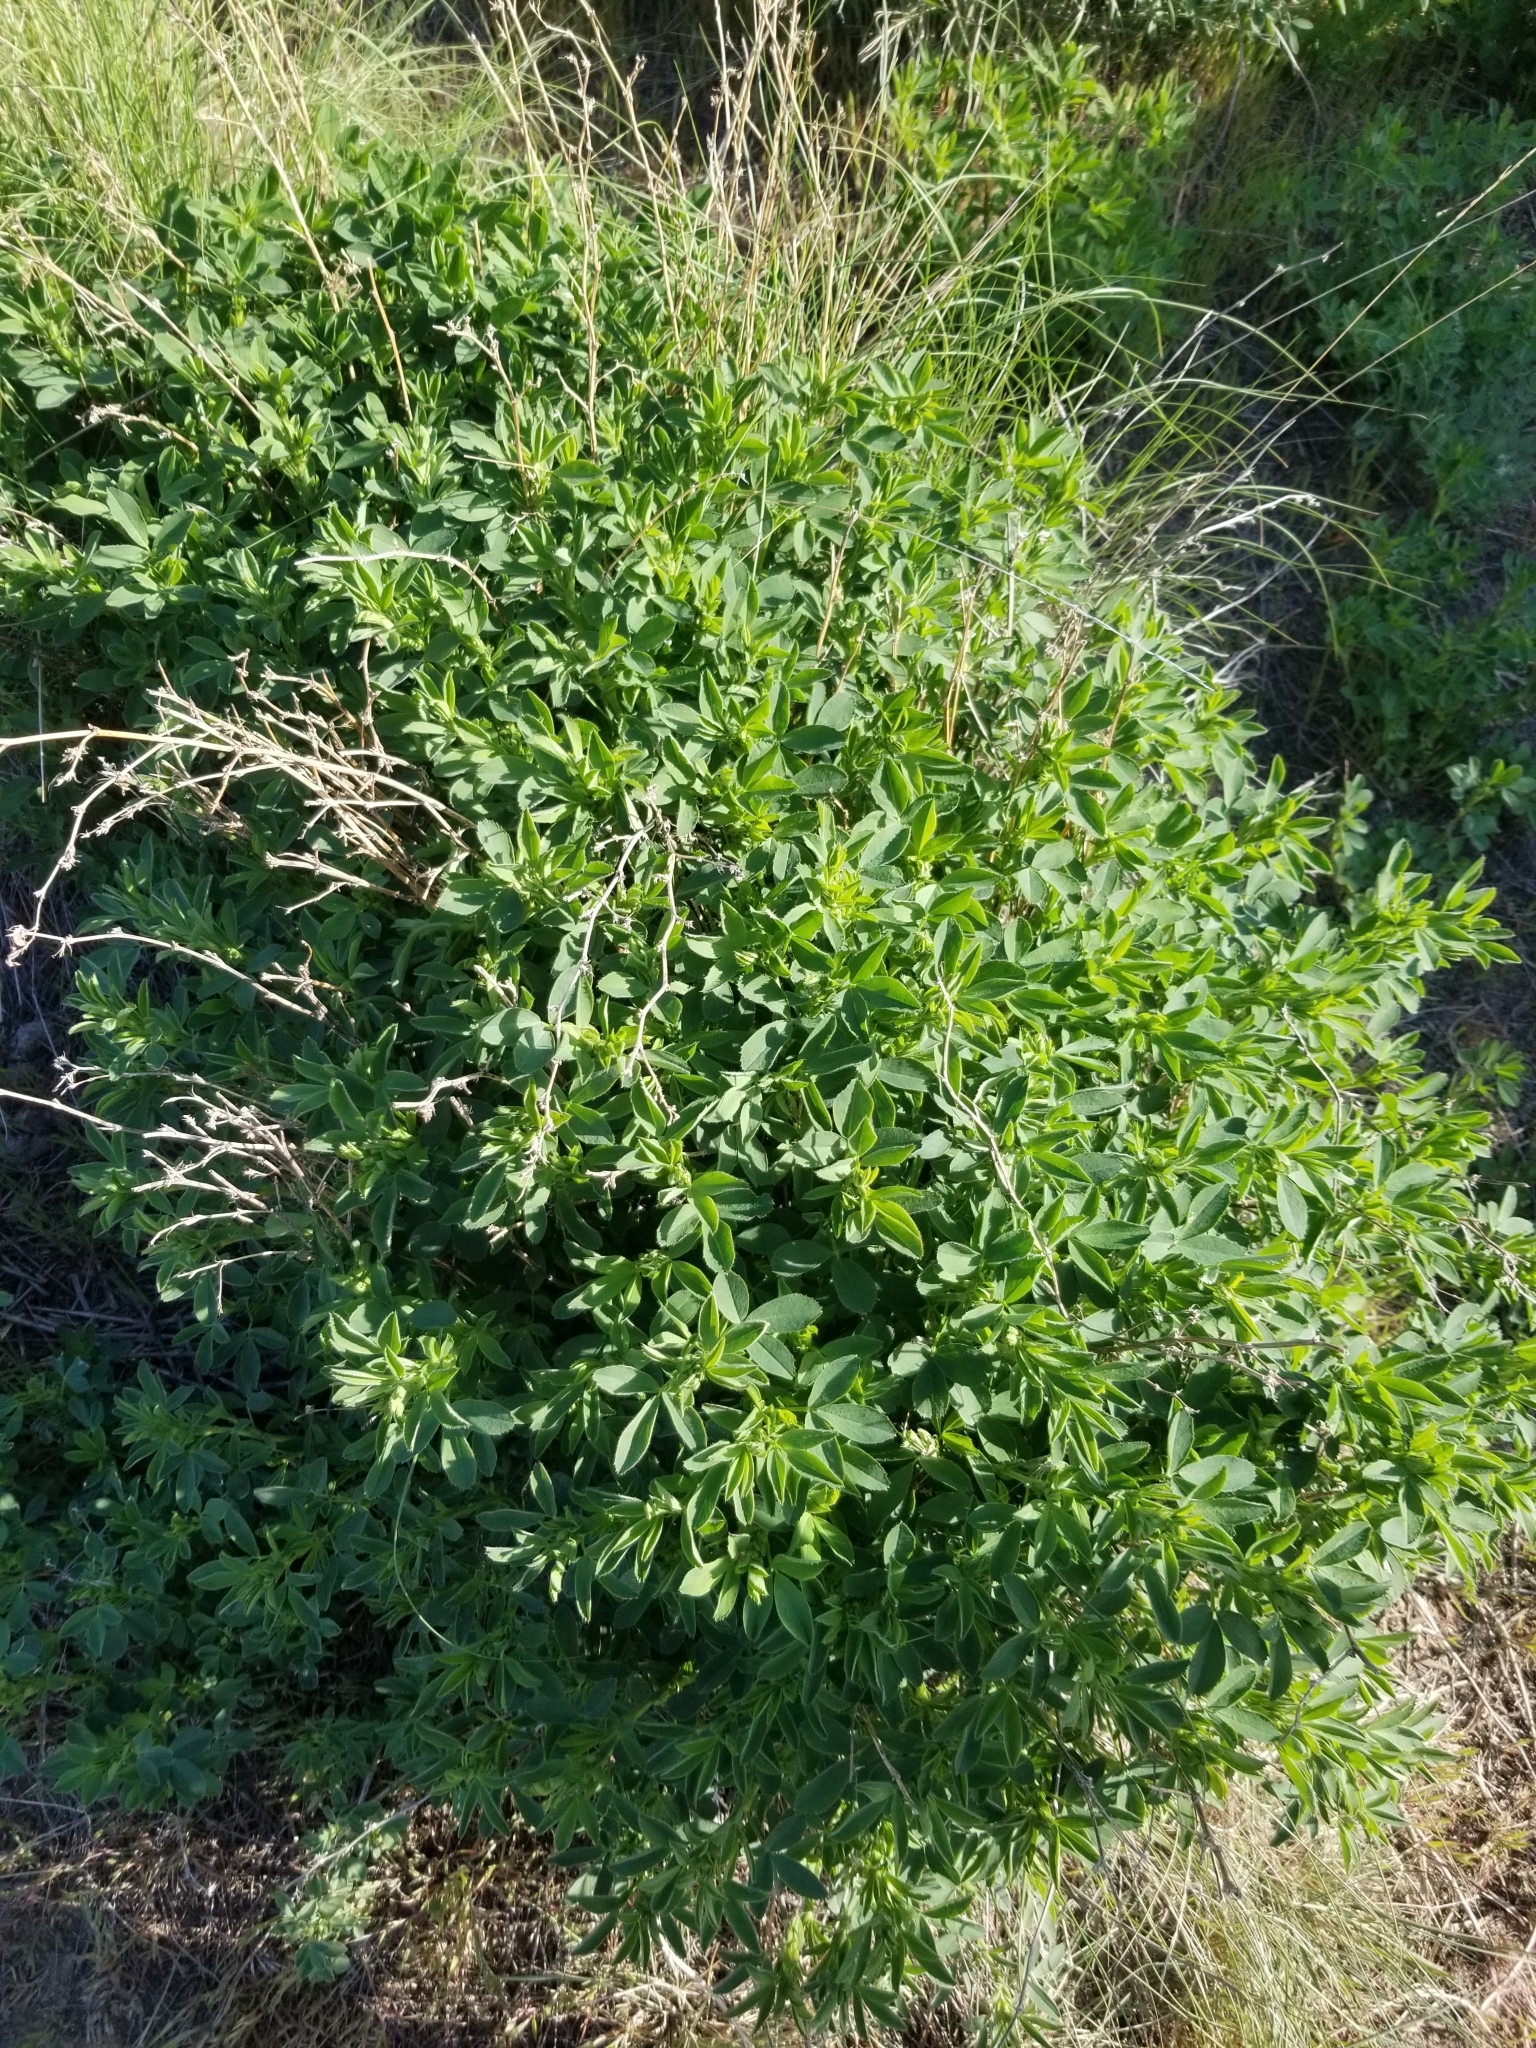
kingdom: Plantae
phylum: Tracheophyta
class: Magnoliopsida
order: Fabales
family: Fabaceae
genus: Medicago
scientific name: Medicago sativa
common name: Alfalfa
